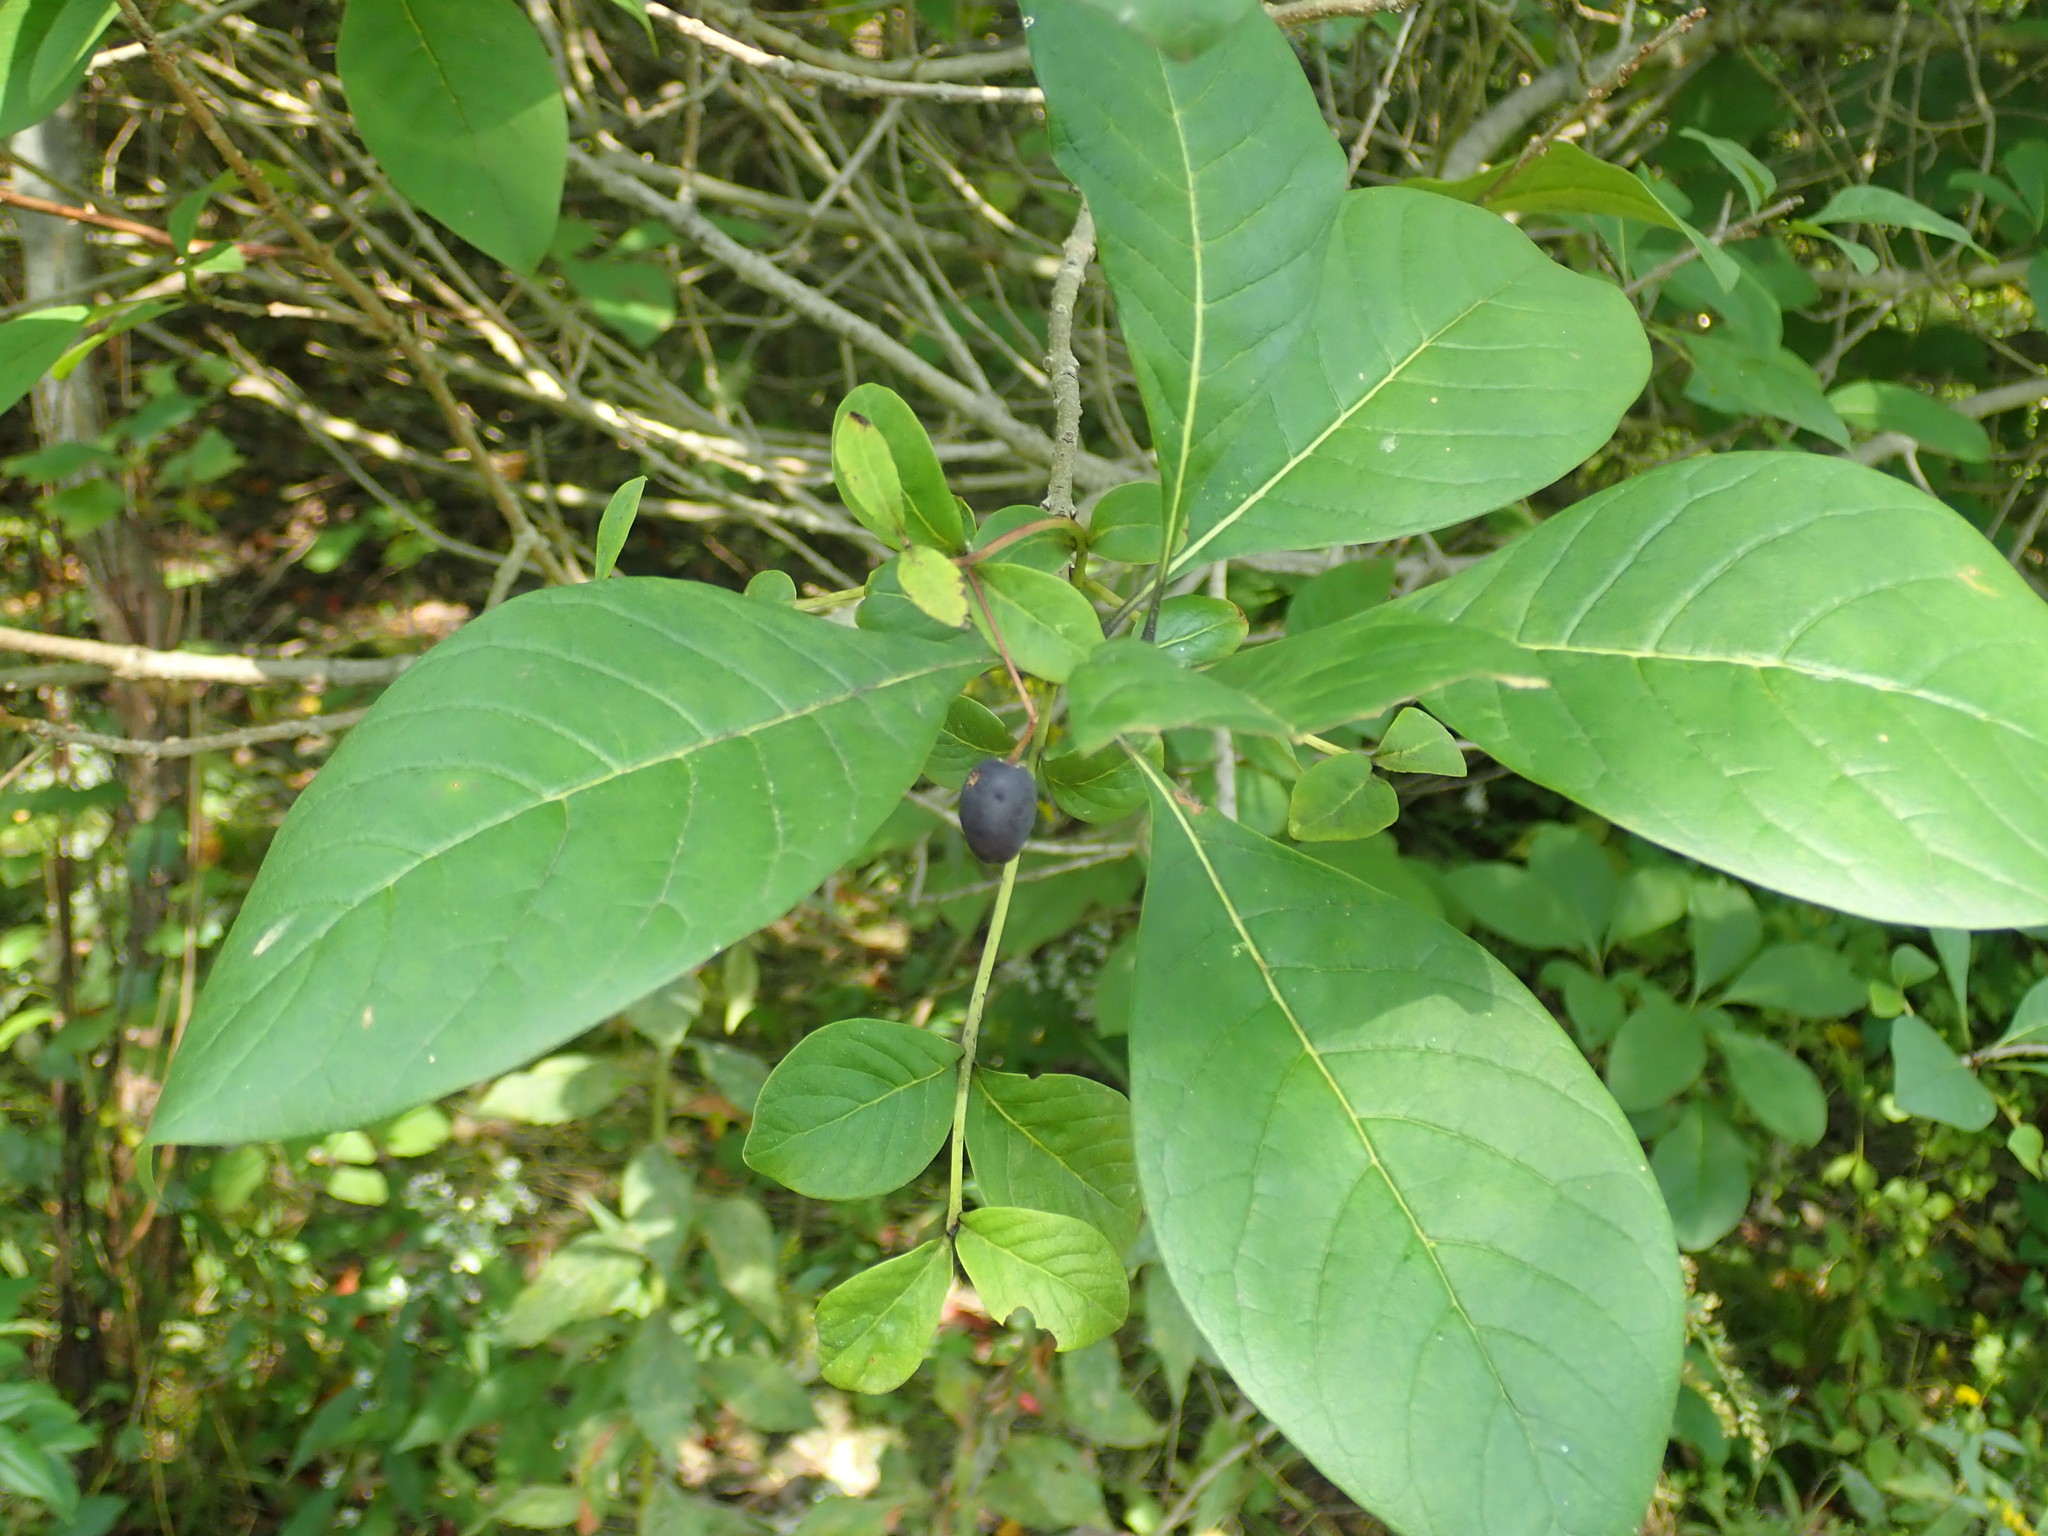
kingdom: Plantae
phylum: Tracheophyta
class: Magnoliopsida
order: Lamiales
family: Oleaceae
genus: Chionanthus
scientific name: Chionanthus virginicus
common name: American fringetree
